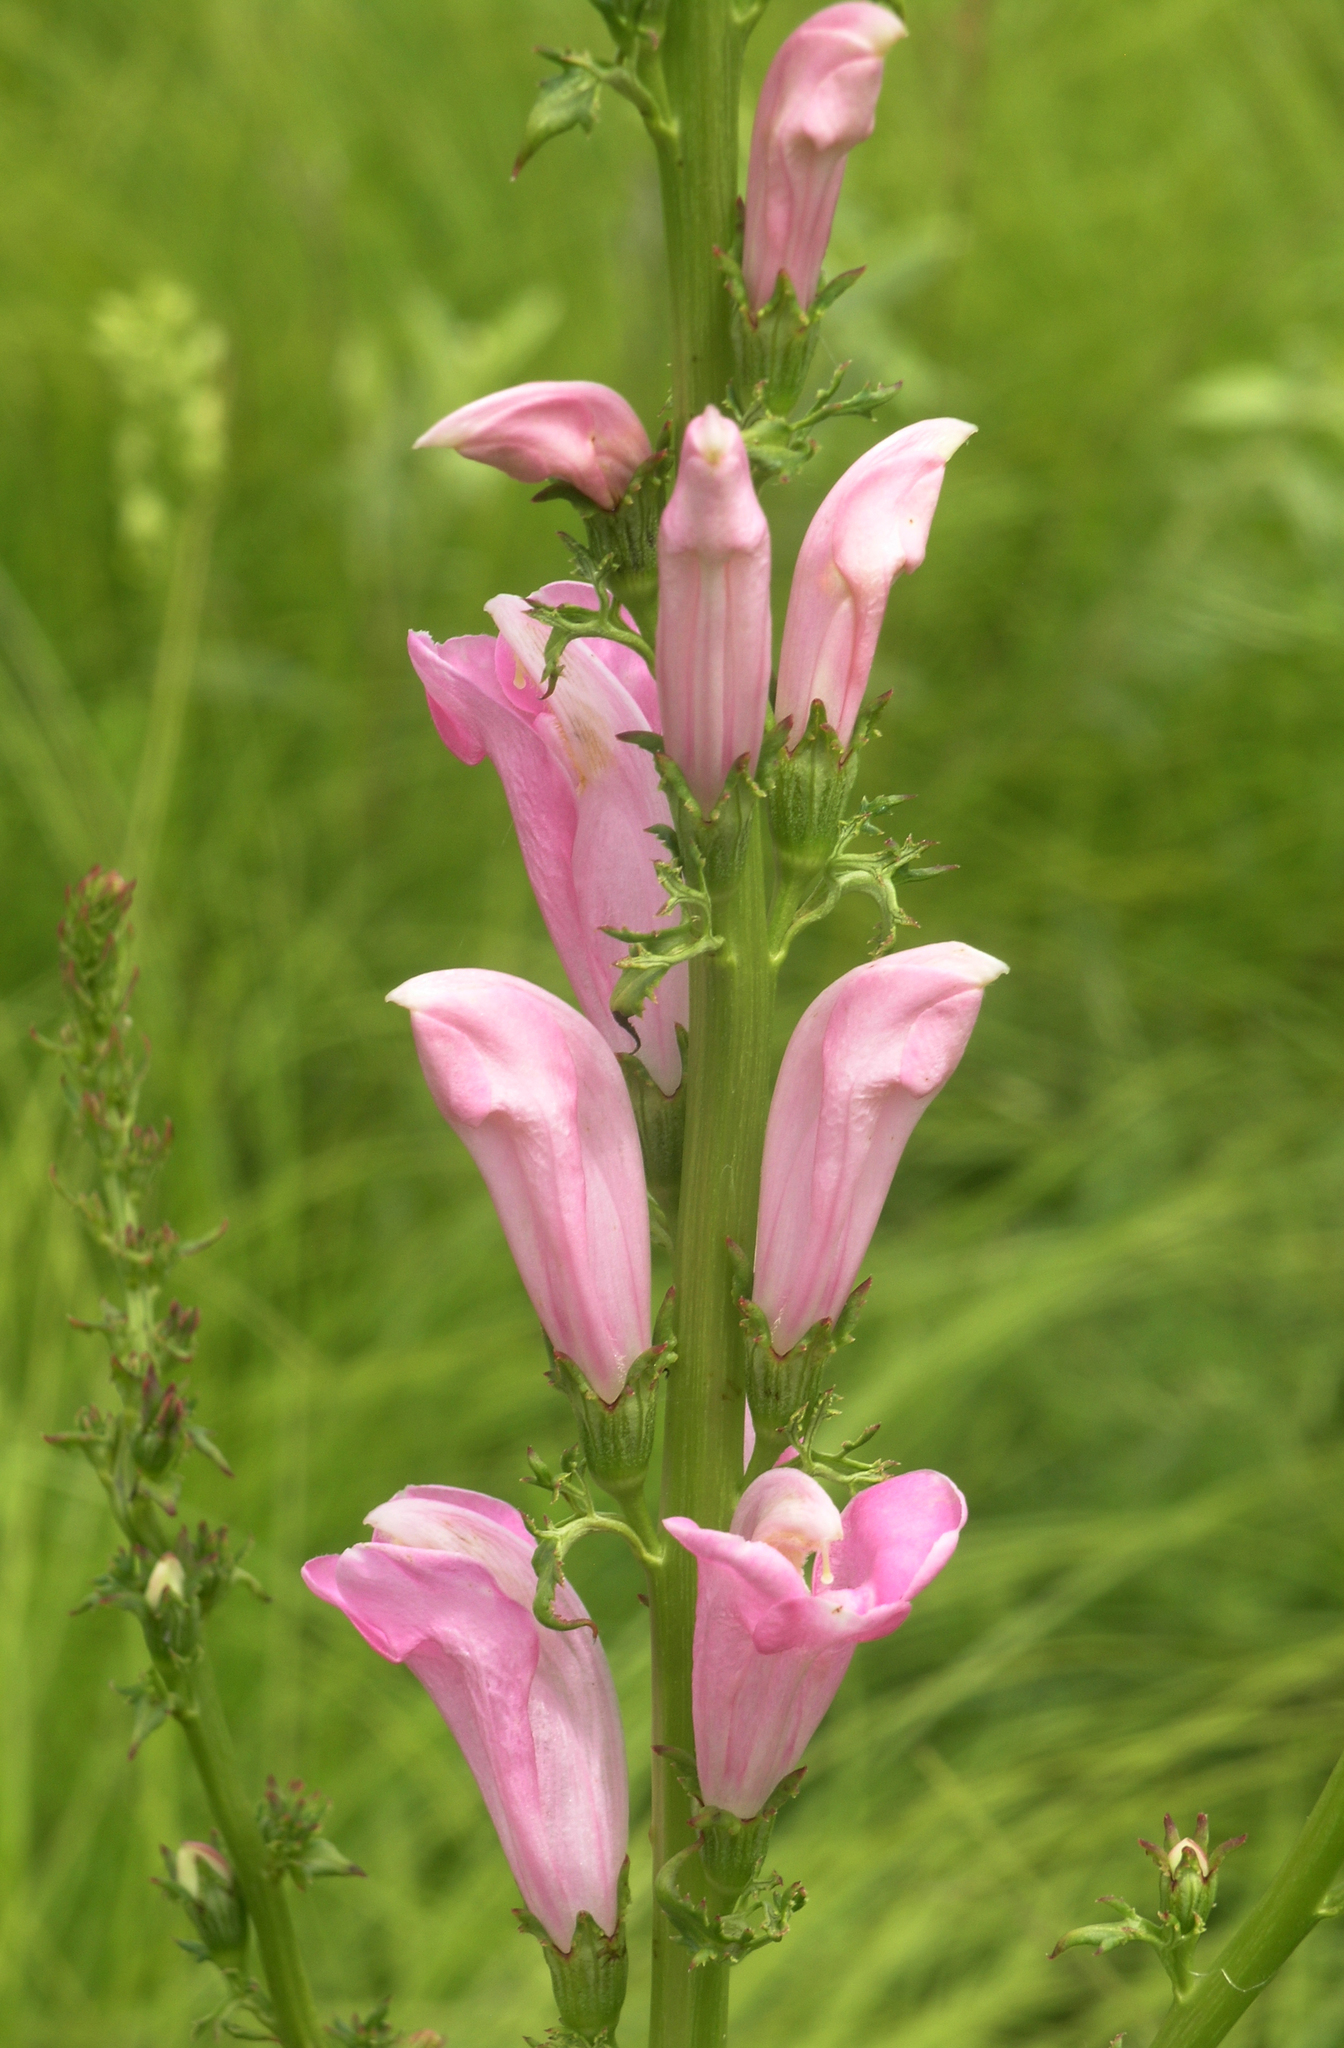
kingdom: Plantae
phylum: Tracheophyta
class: Magnoliopsida
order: Lamiales
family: Orobanchaceae
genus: Pedicularis
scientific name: Pedicularis
